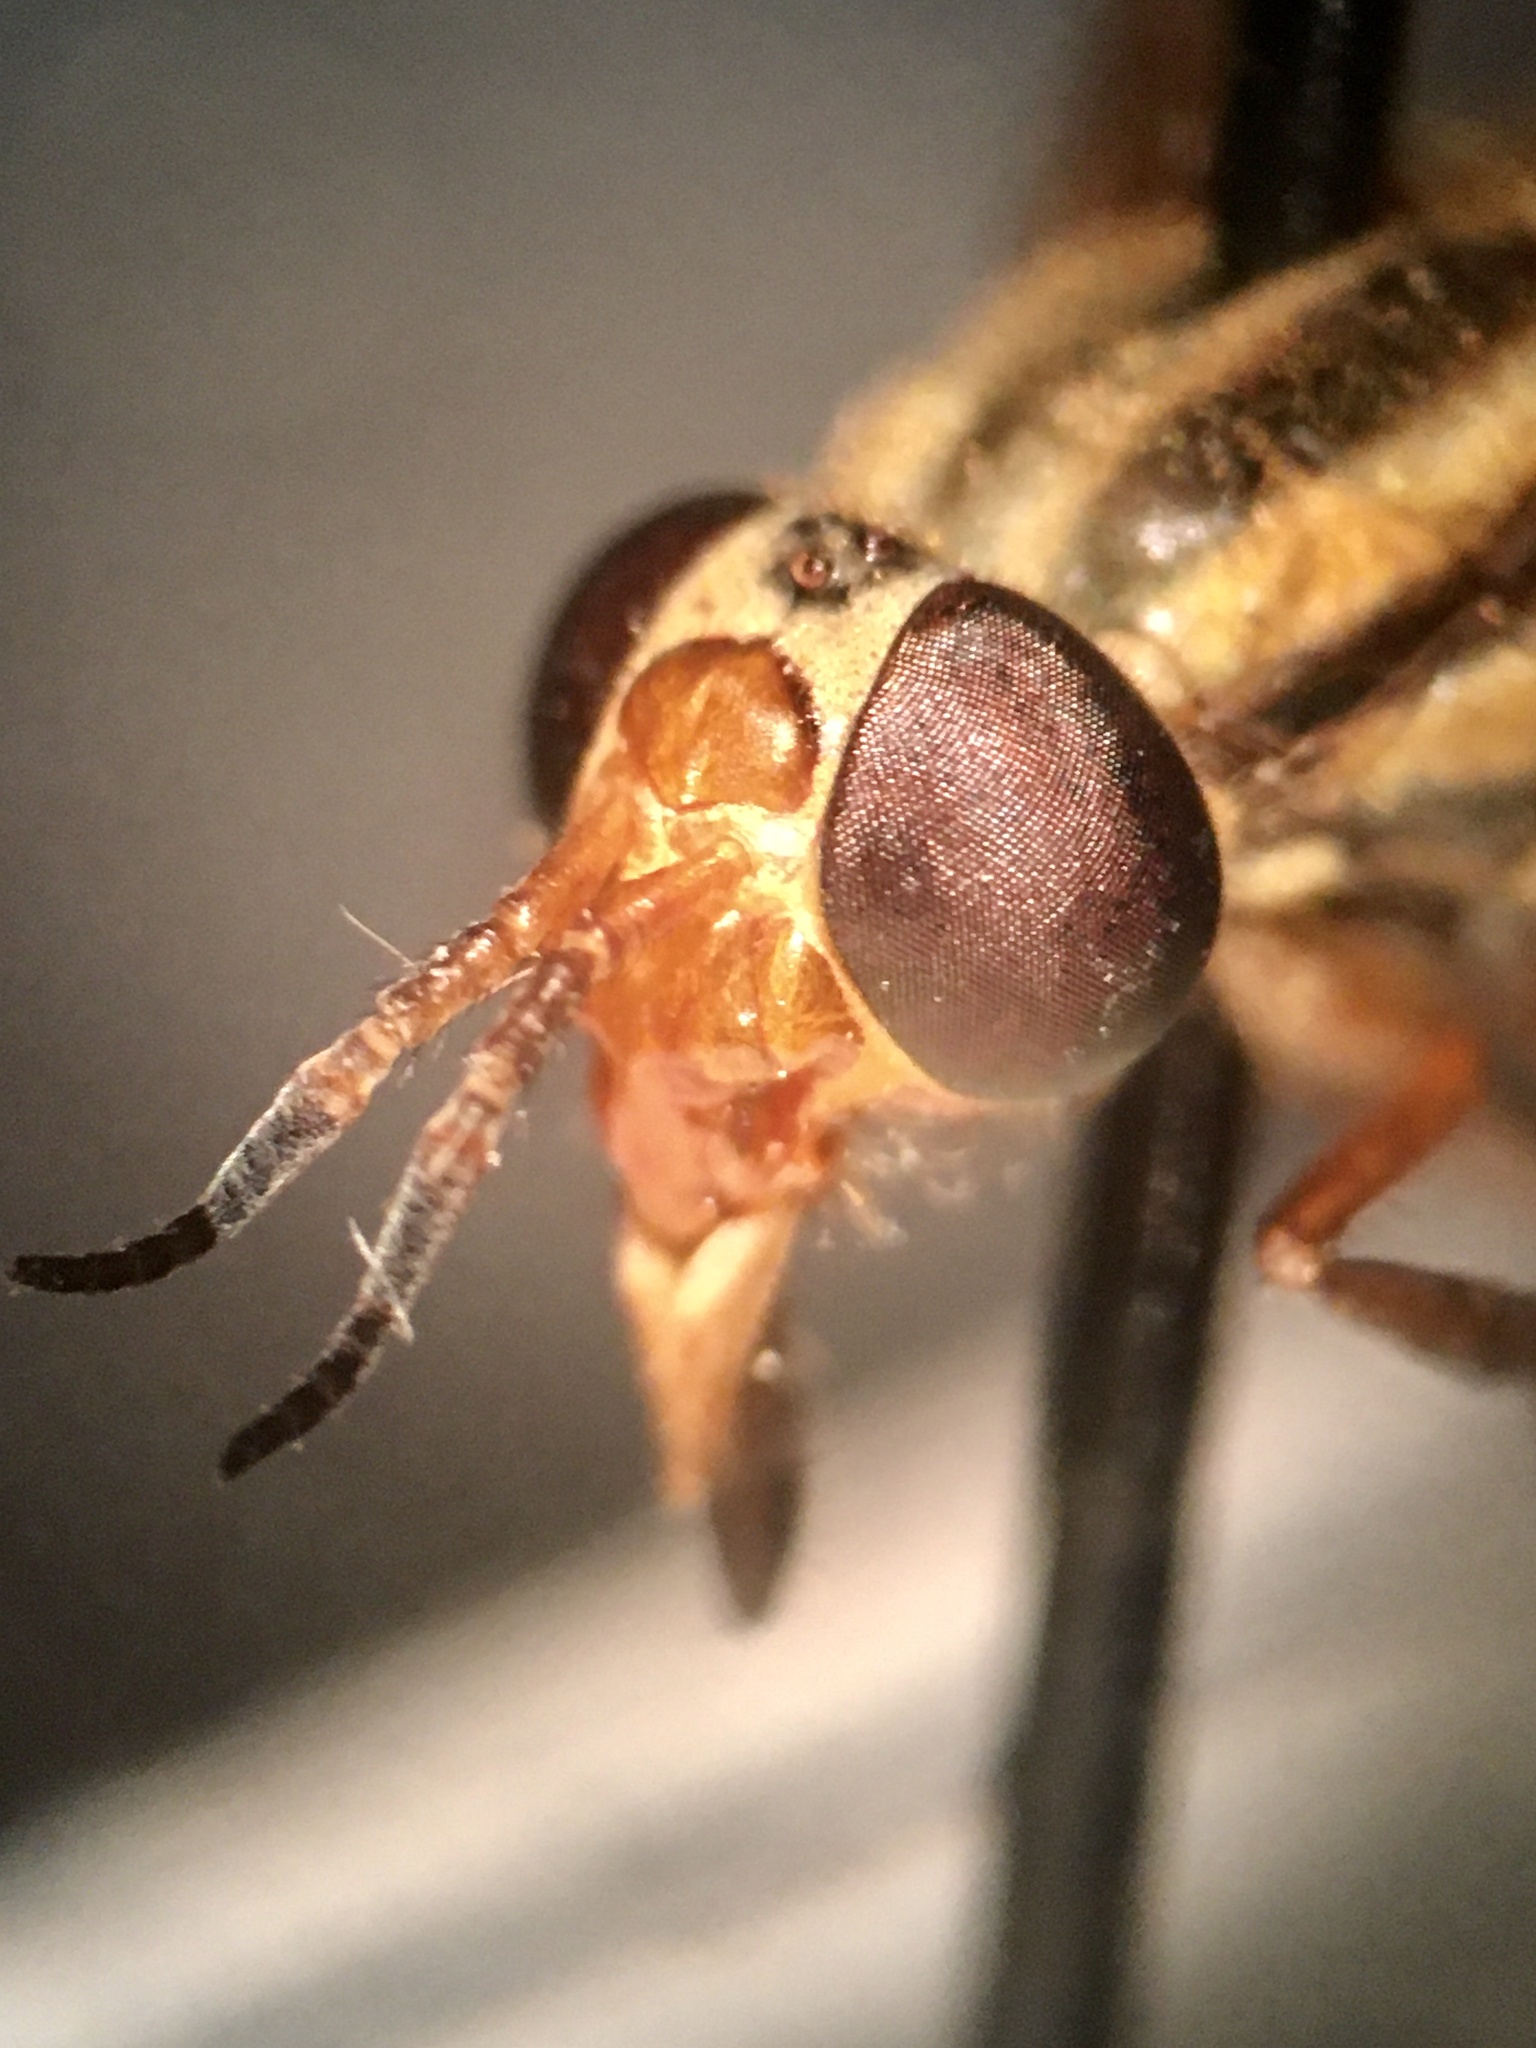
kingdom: Animalia
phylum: Arthropoda
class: Insecta
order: Diptera
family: Tabanidae
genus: Chrysops
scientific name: Chrysops vittatus
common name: Striped deer fly
